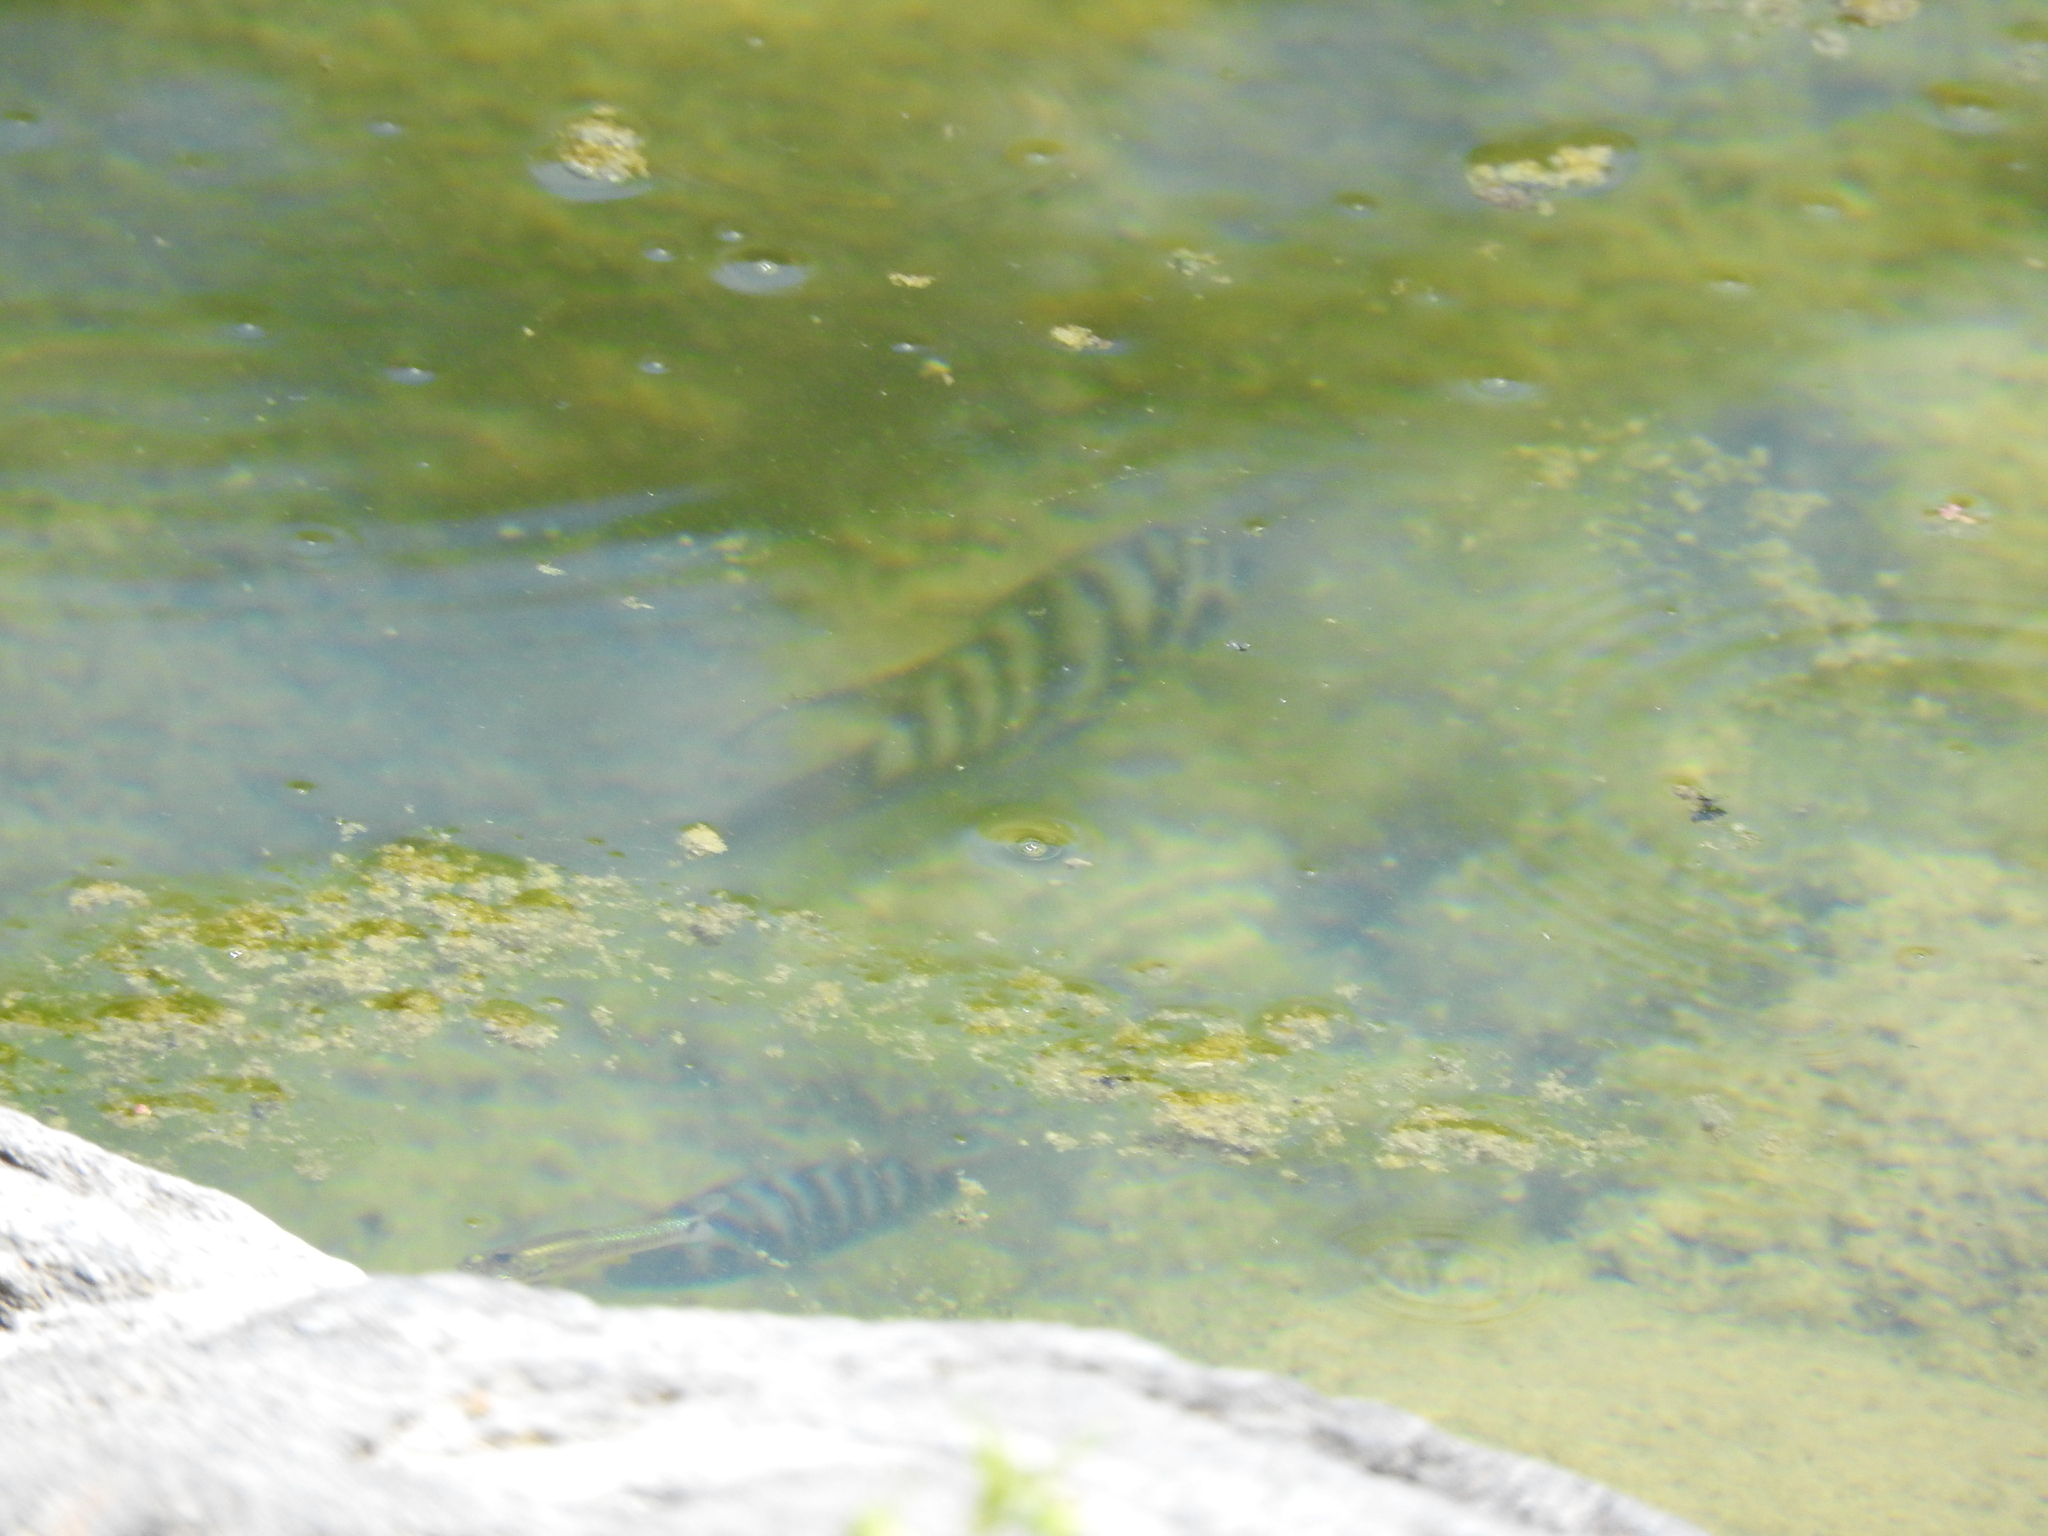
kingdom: Animalia
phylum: Chordata
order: Perciformes
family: Cichlidae
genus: Amatitlania
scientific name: Amatitlania nigrofasciata
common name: Convict cichlid
